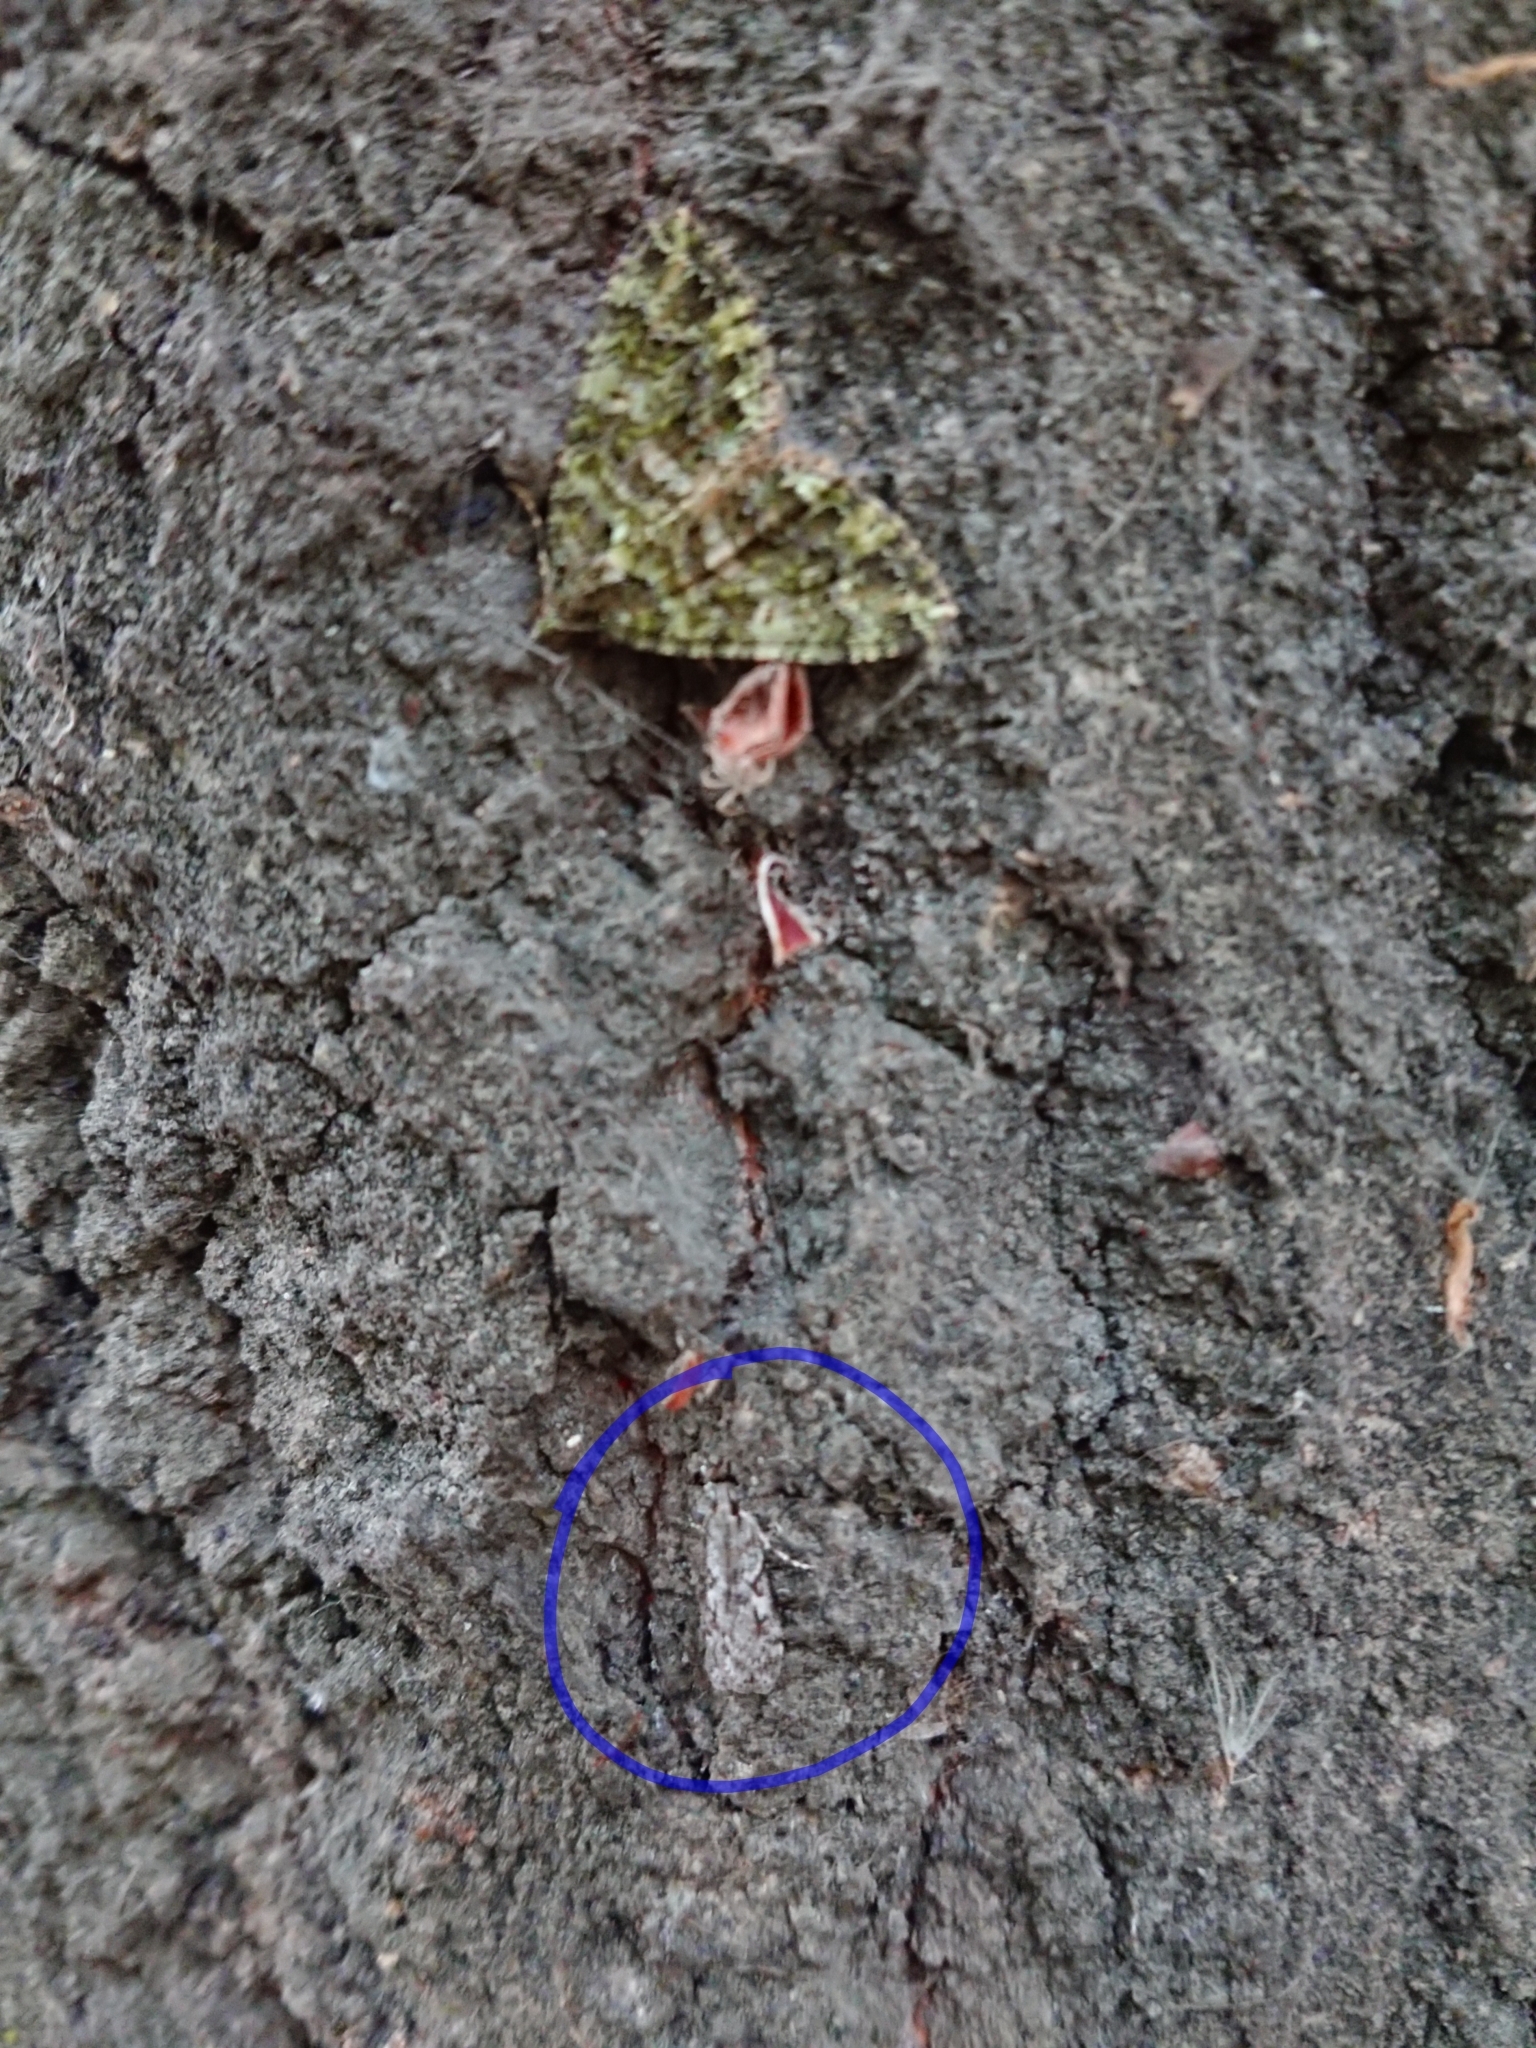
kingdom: Animalia
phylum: Arthropoda
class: Insecta
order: Lepidoptera
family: Crambidae
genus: Scoparia
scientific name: Scoparia halopis
